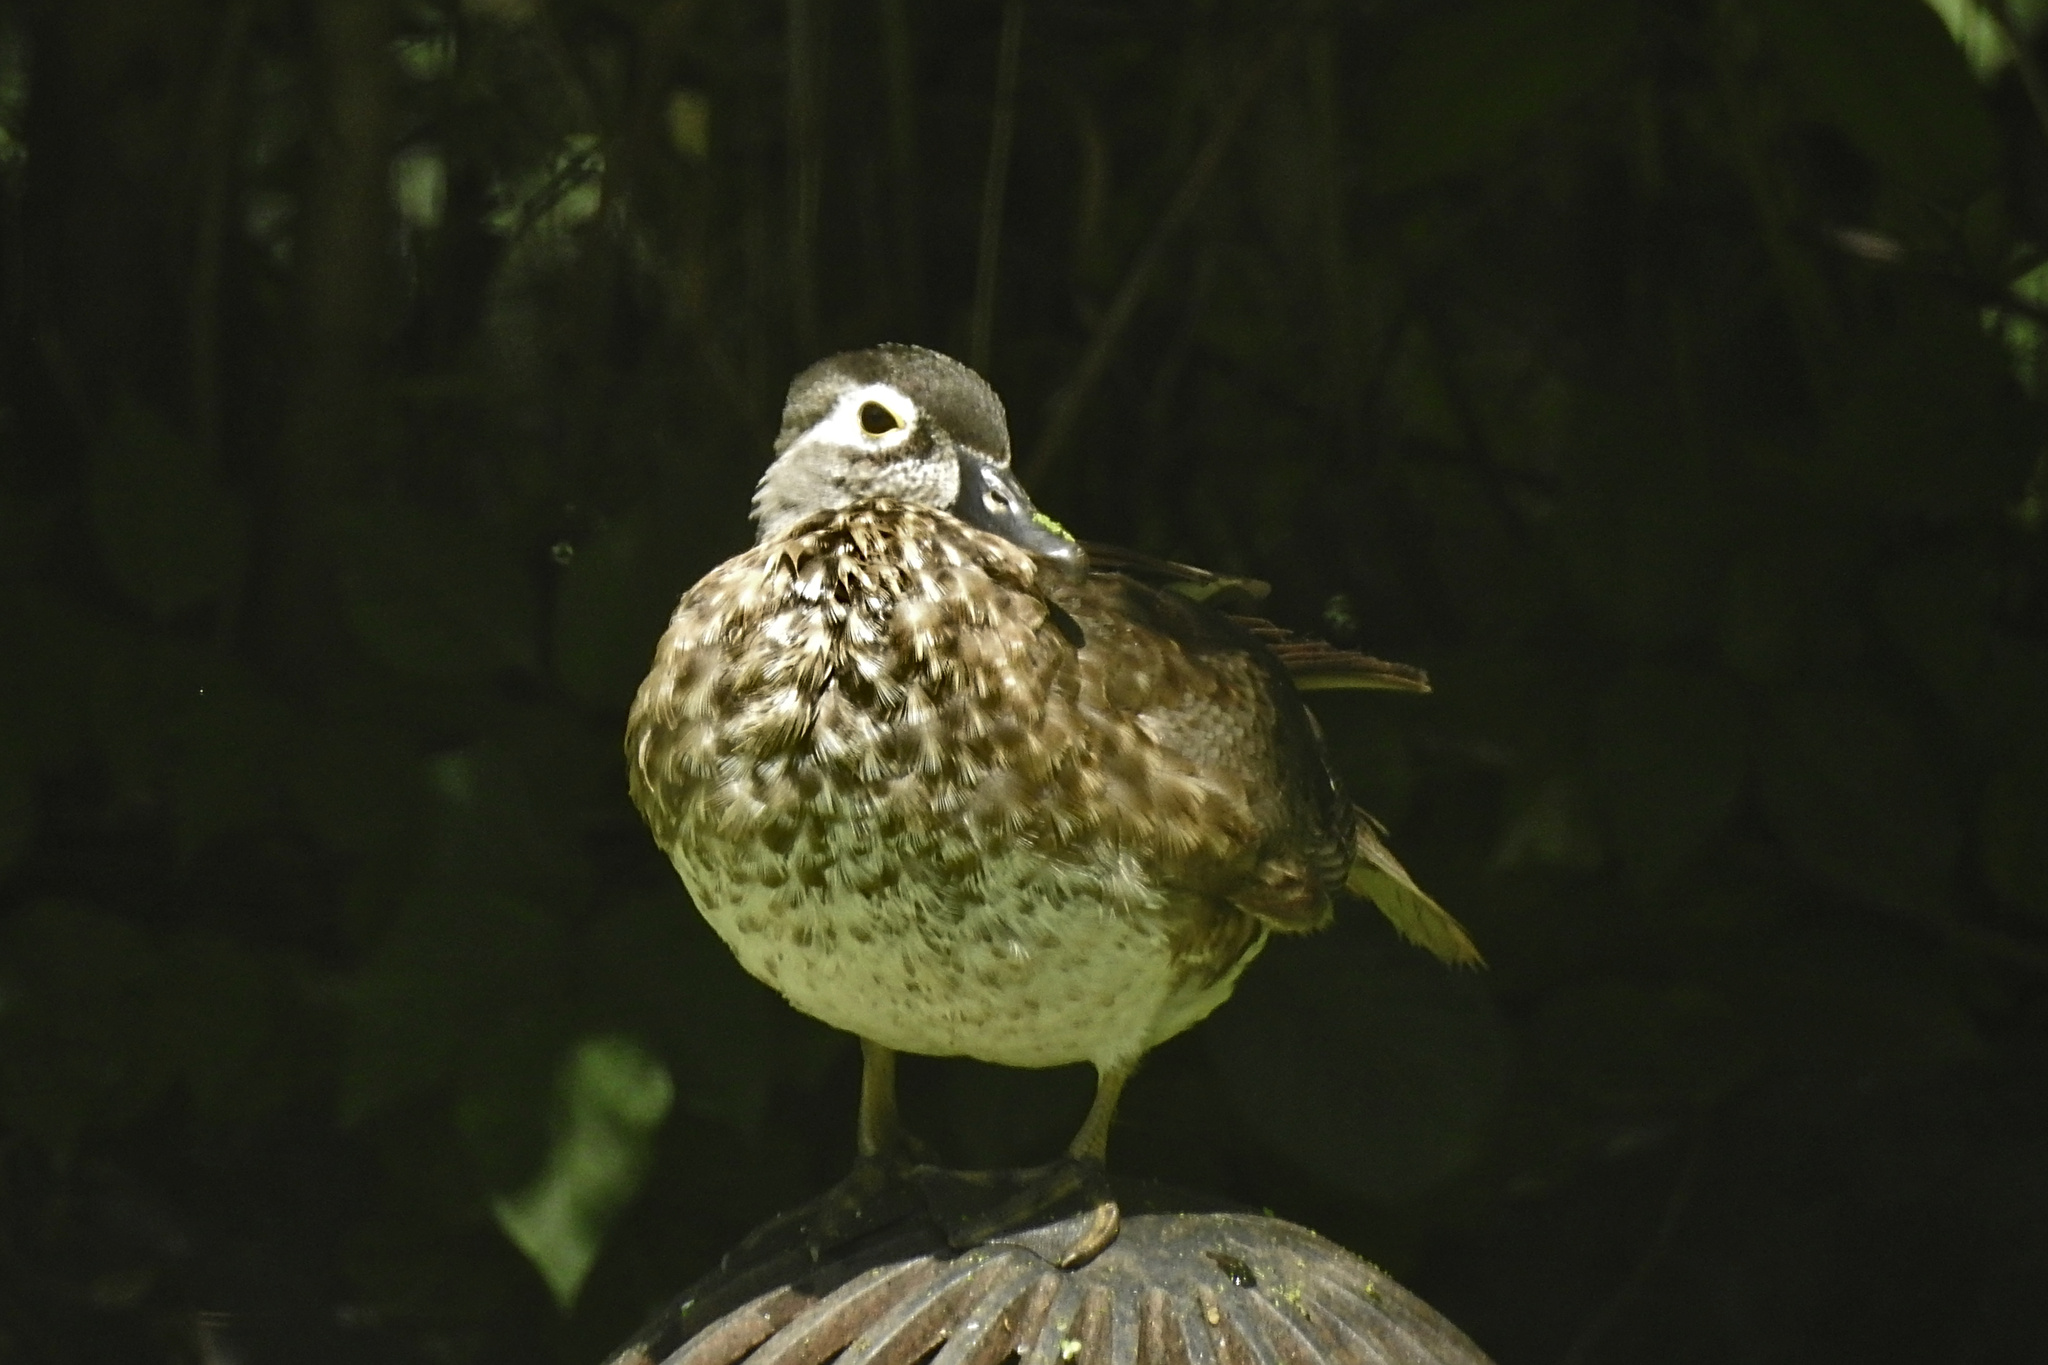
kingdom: Animalia
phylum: Chordata
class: Aves
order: Anseriformes
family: Anatidae
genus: Aix
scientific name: Aix sponsa
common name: Wood duck
